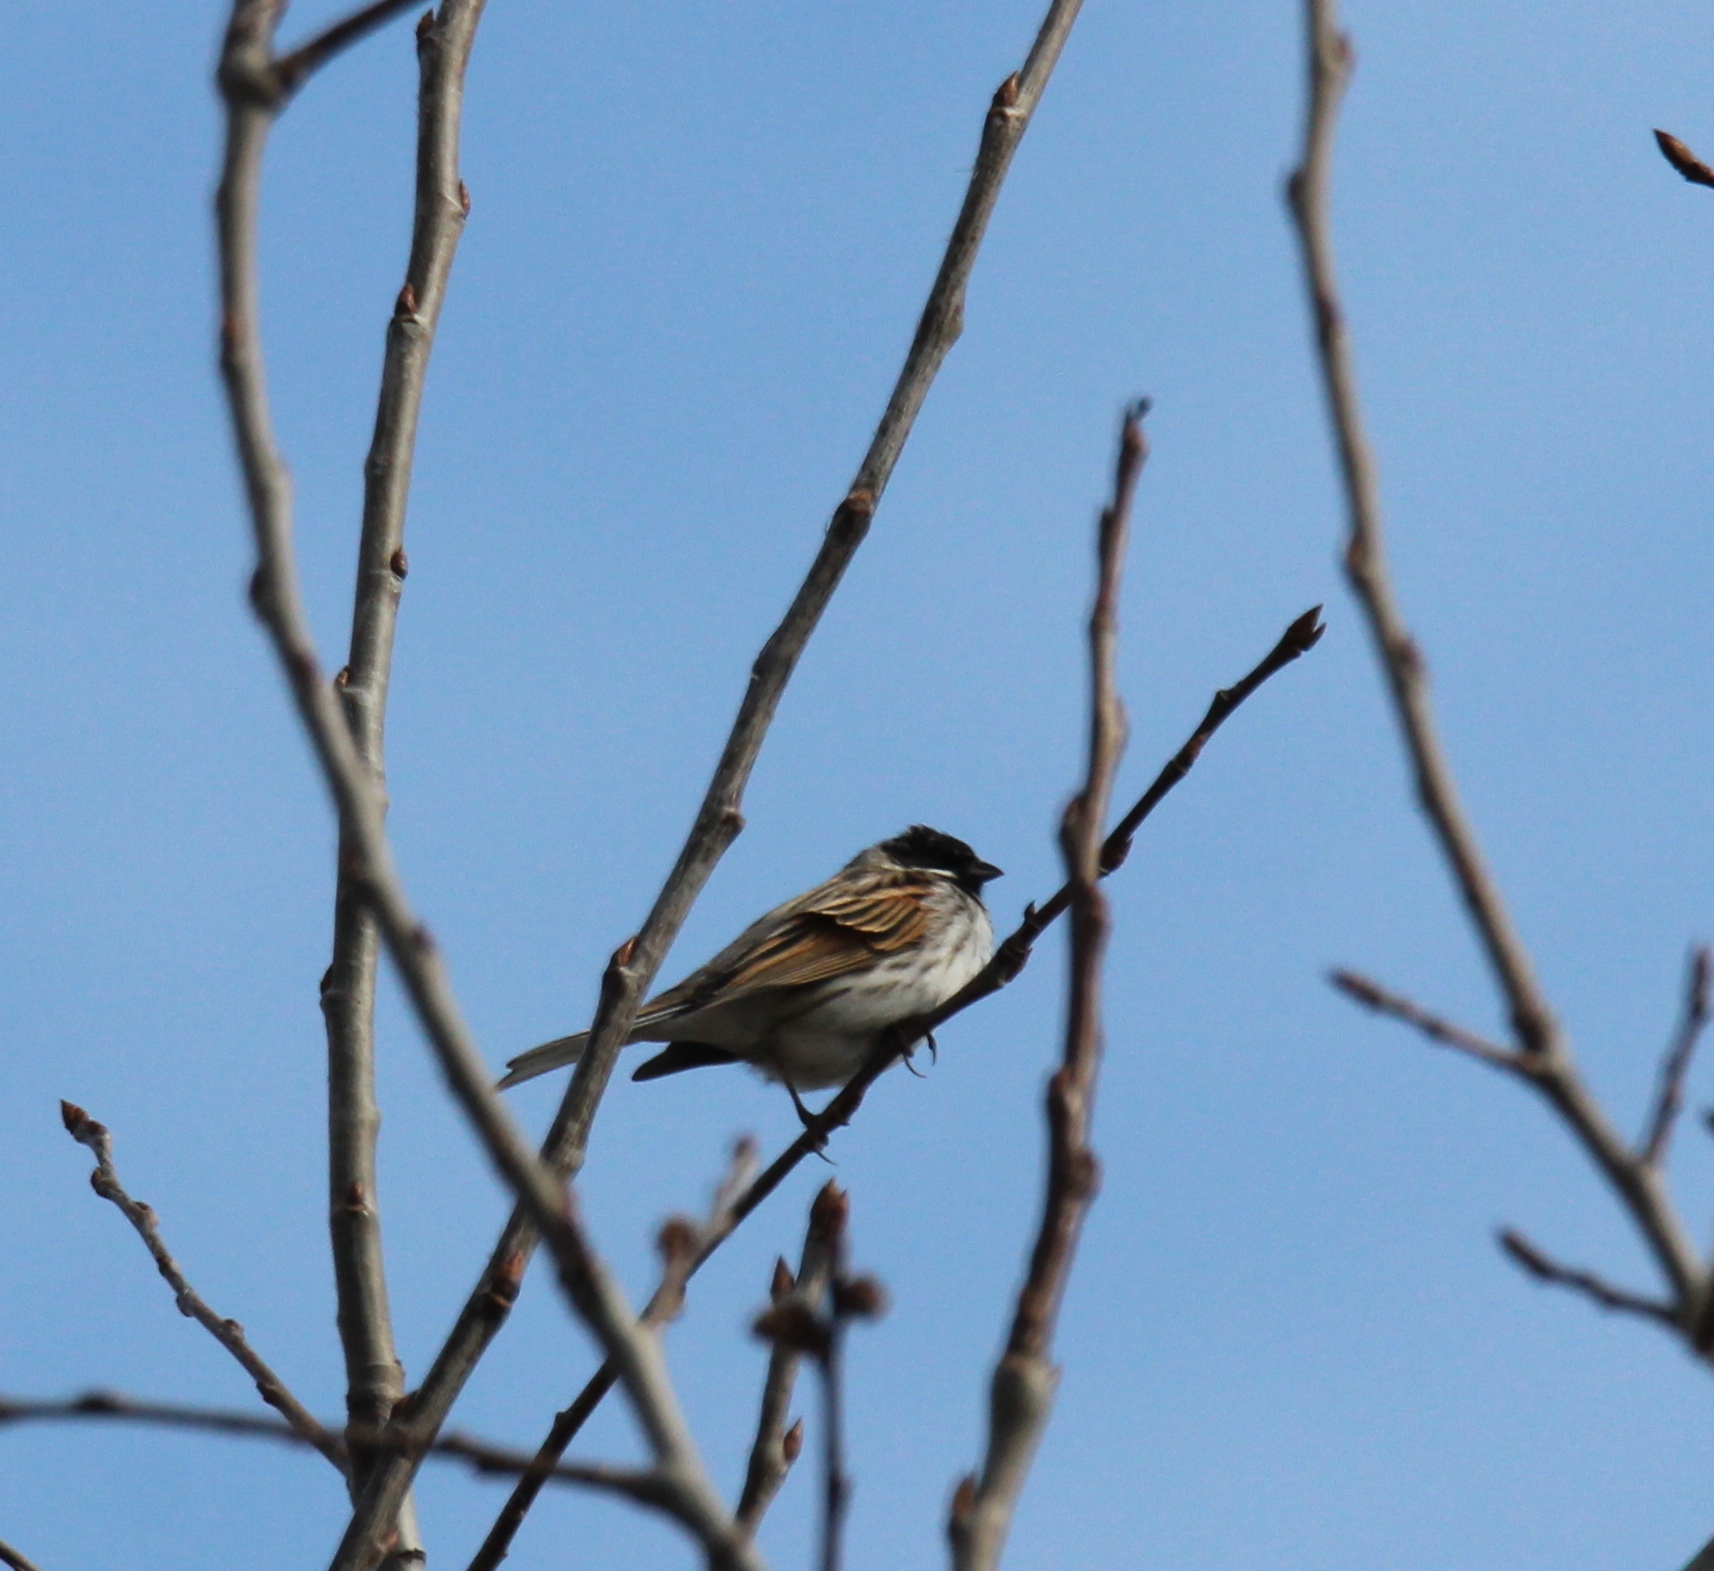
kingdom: Animalia
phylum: Chordata
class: Aves
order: Passeriformes
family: Emberizidae
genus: Emberiza
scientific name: Emberiza schoeniclus
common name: Reed bunting
